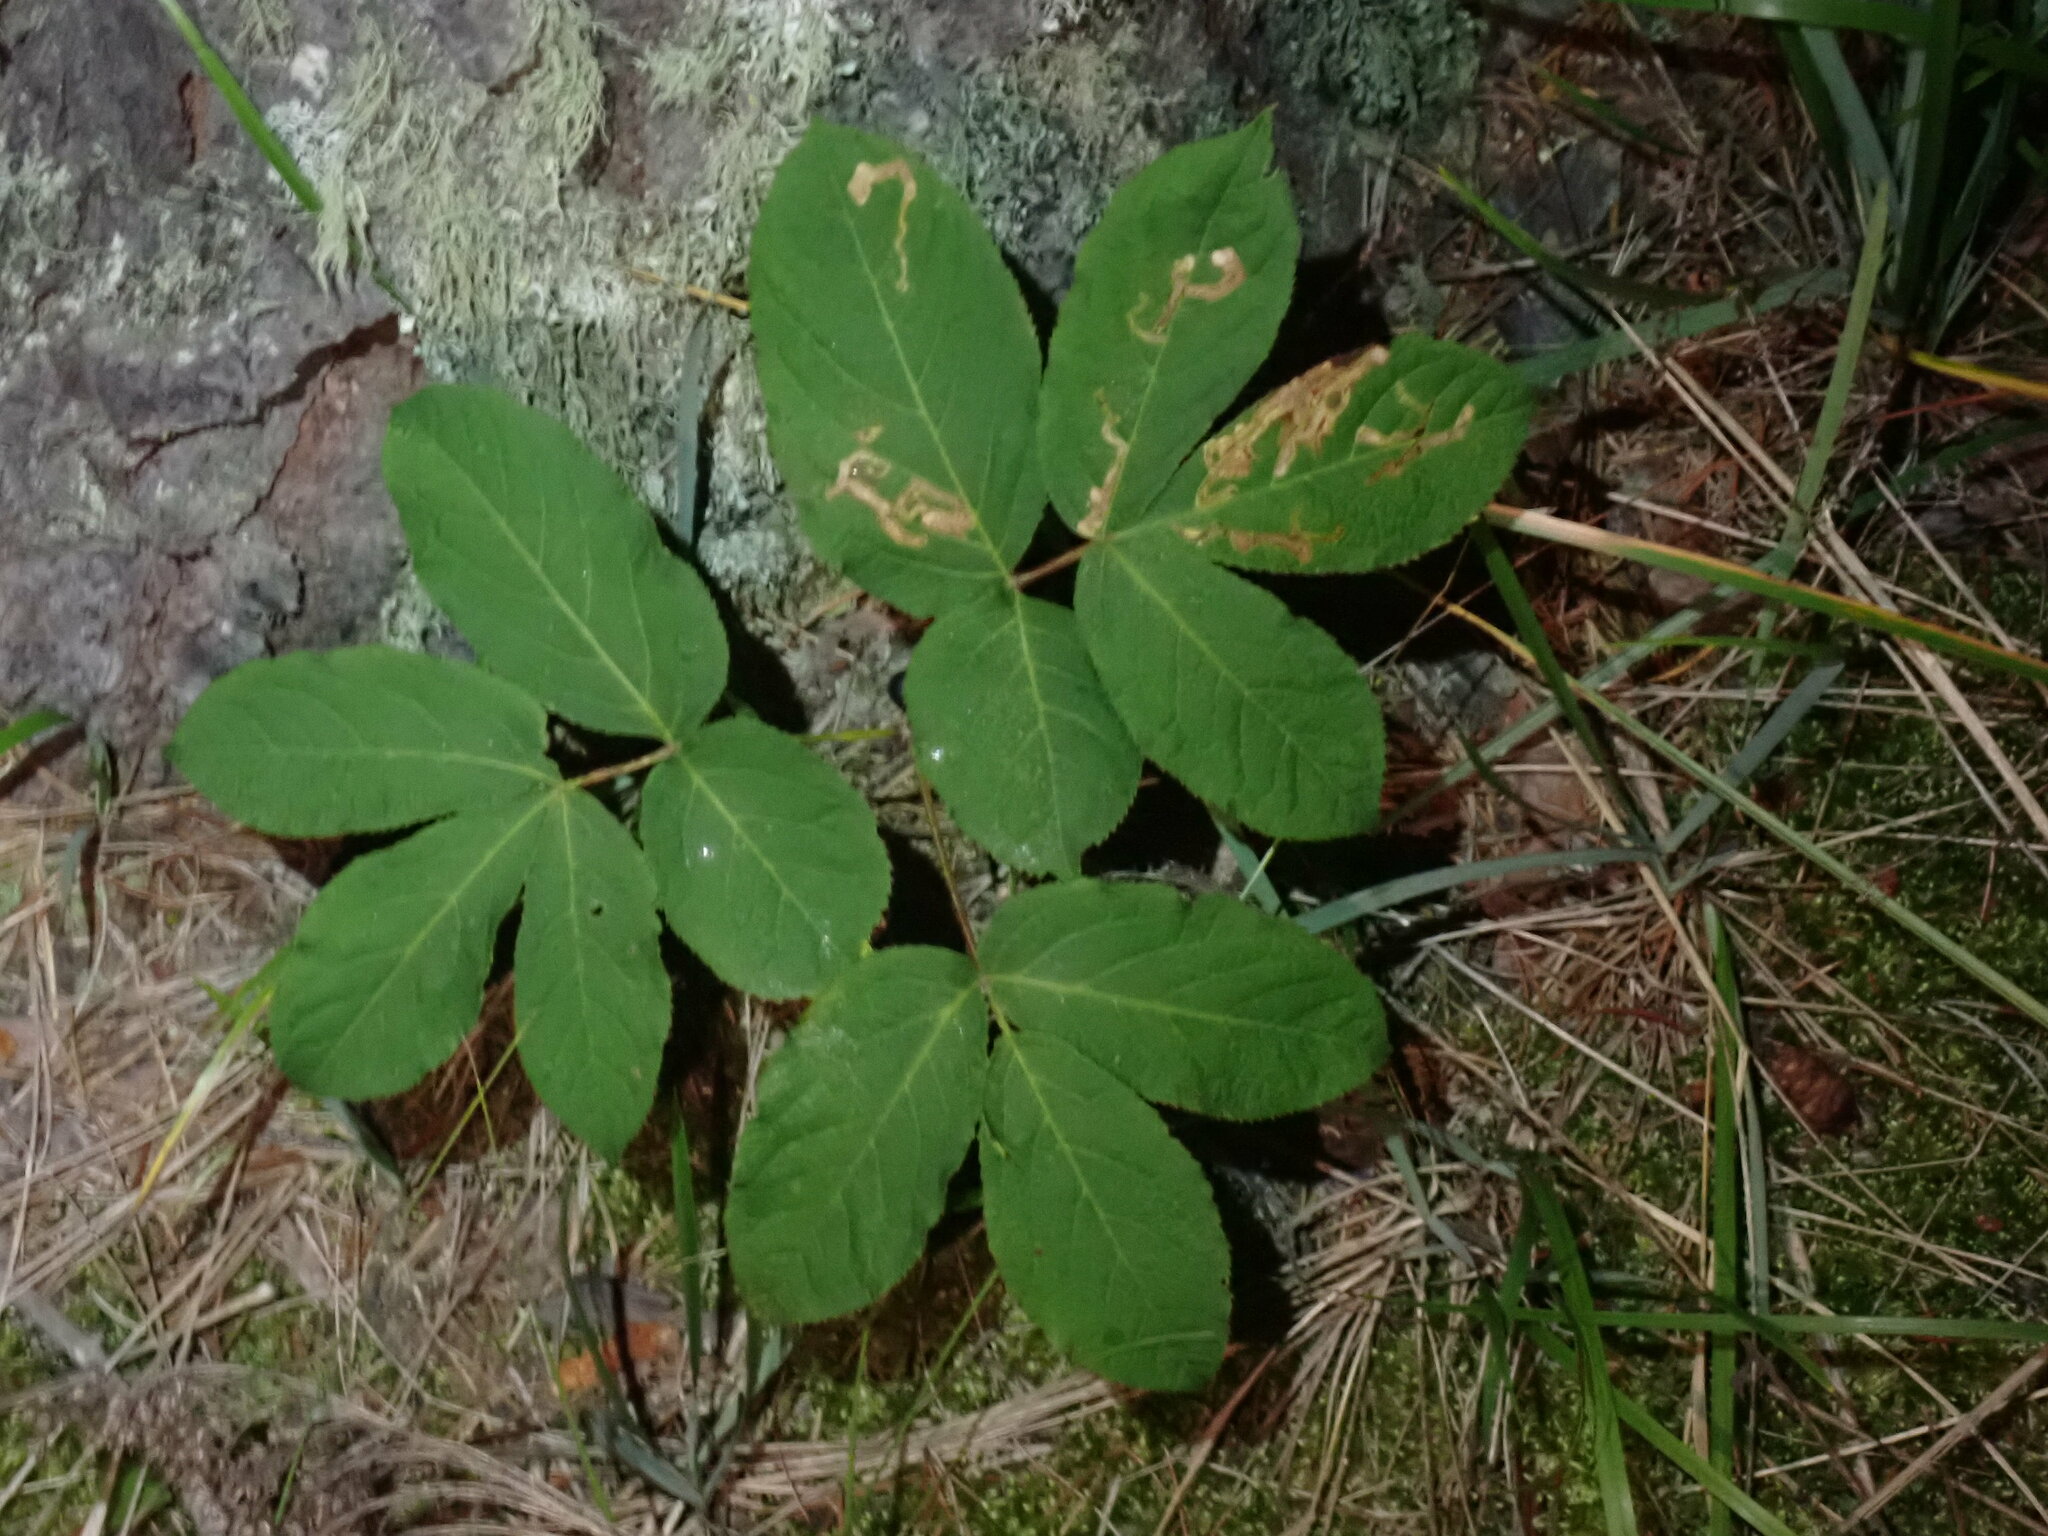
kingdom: Plantae
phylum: Tracheophyta
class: Magnoliopsida
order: Apiales
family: Araliaceae
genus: Aralia
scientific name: Aralia nudicaulis
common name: Wild sarsaparilla
